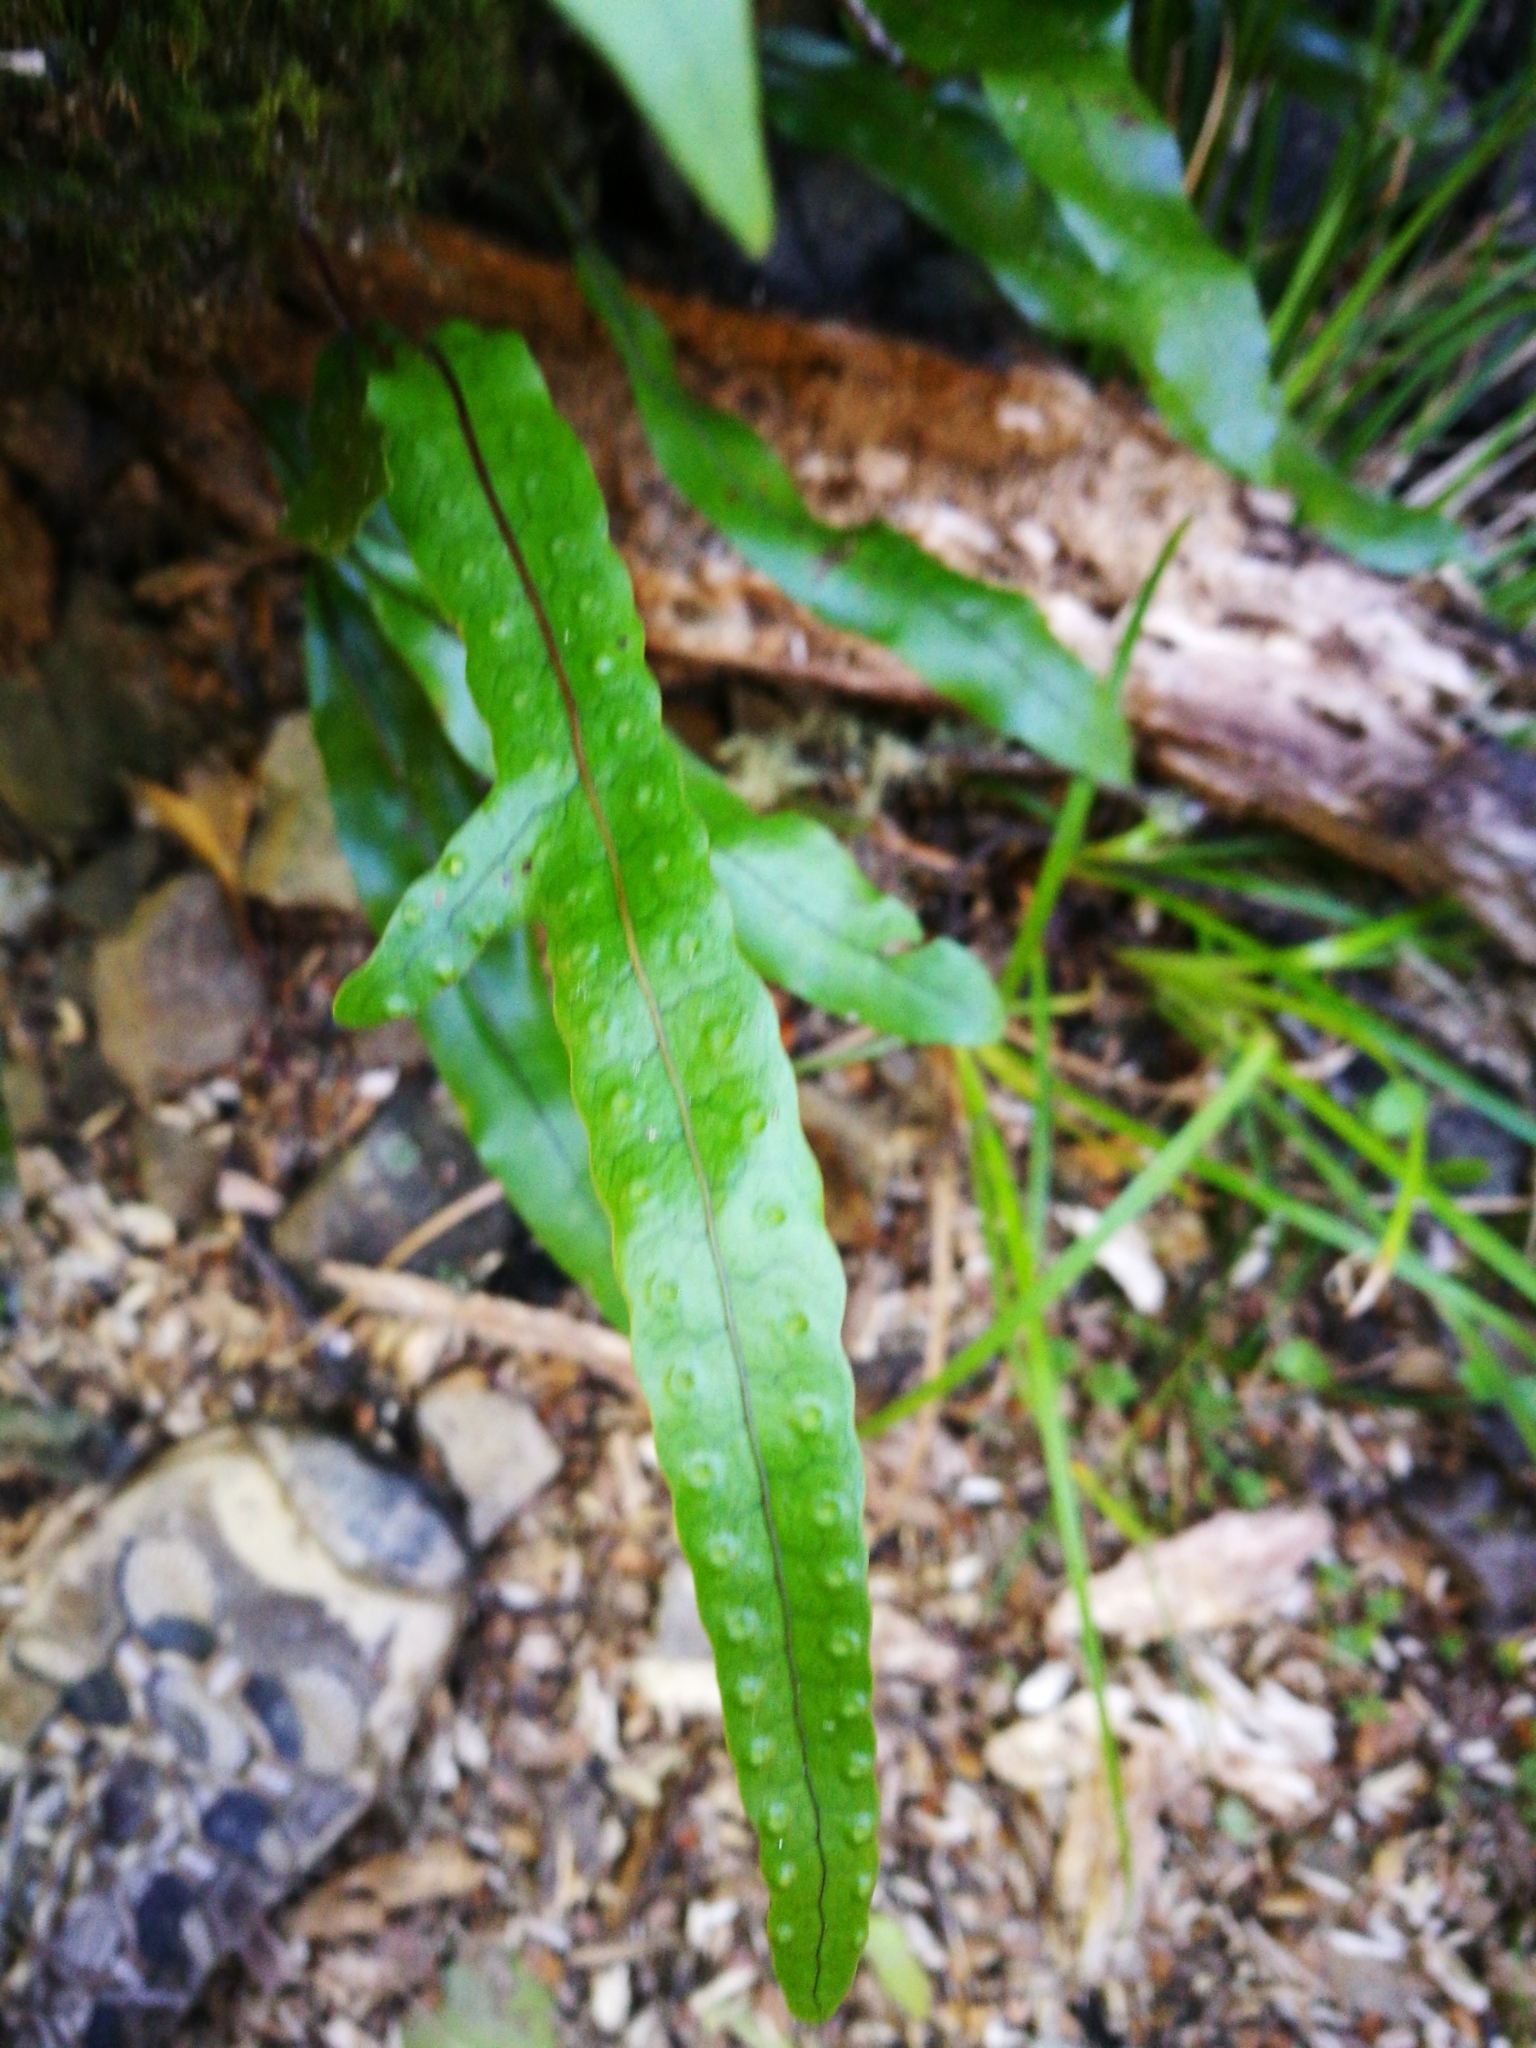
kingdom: Plantae
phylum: Tracheophyta
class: Polypodiopsida
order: Polypodiales
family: Polypodiaceae
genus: Lecanopteris
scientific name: Lecanopteris pustulata
